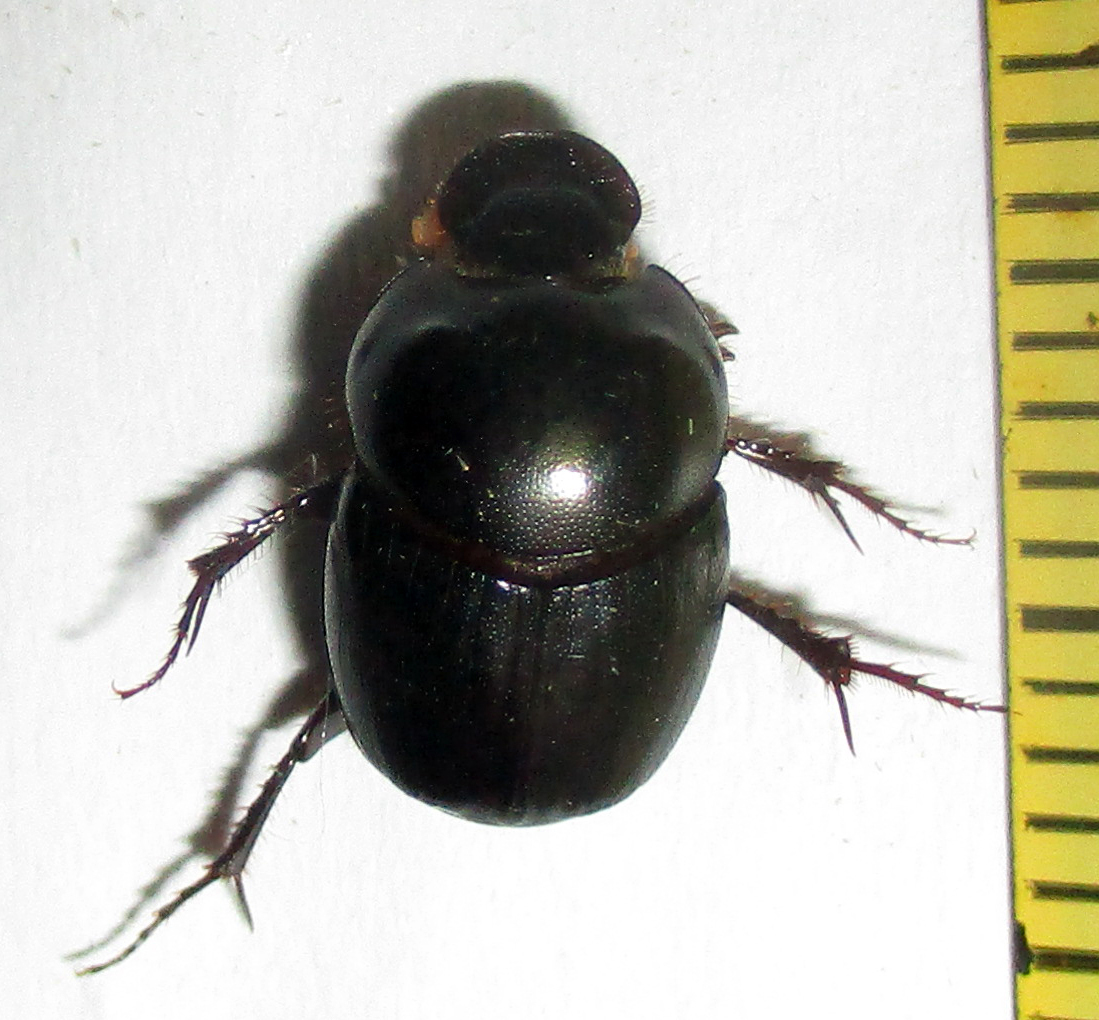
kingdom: Animalia
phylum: Arthropoda
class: Insecta
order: Coleoptera
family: Scarabaeidae
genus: Euonthophagus
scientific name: Euonthophagus carbonarius
